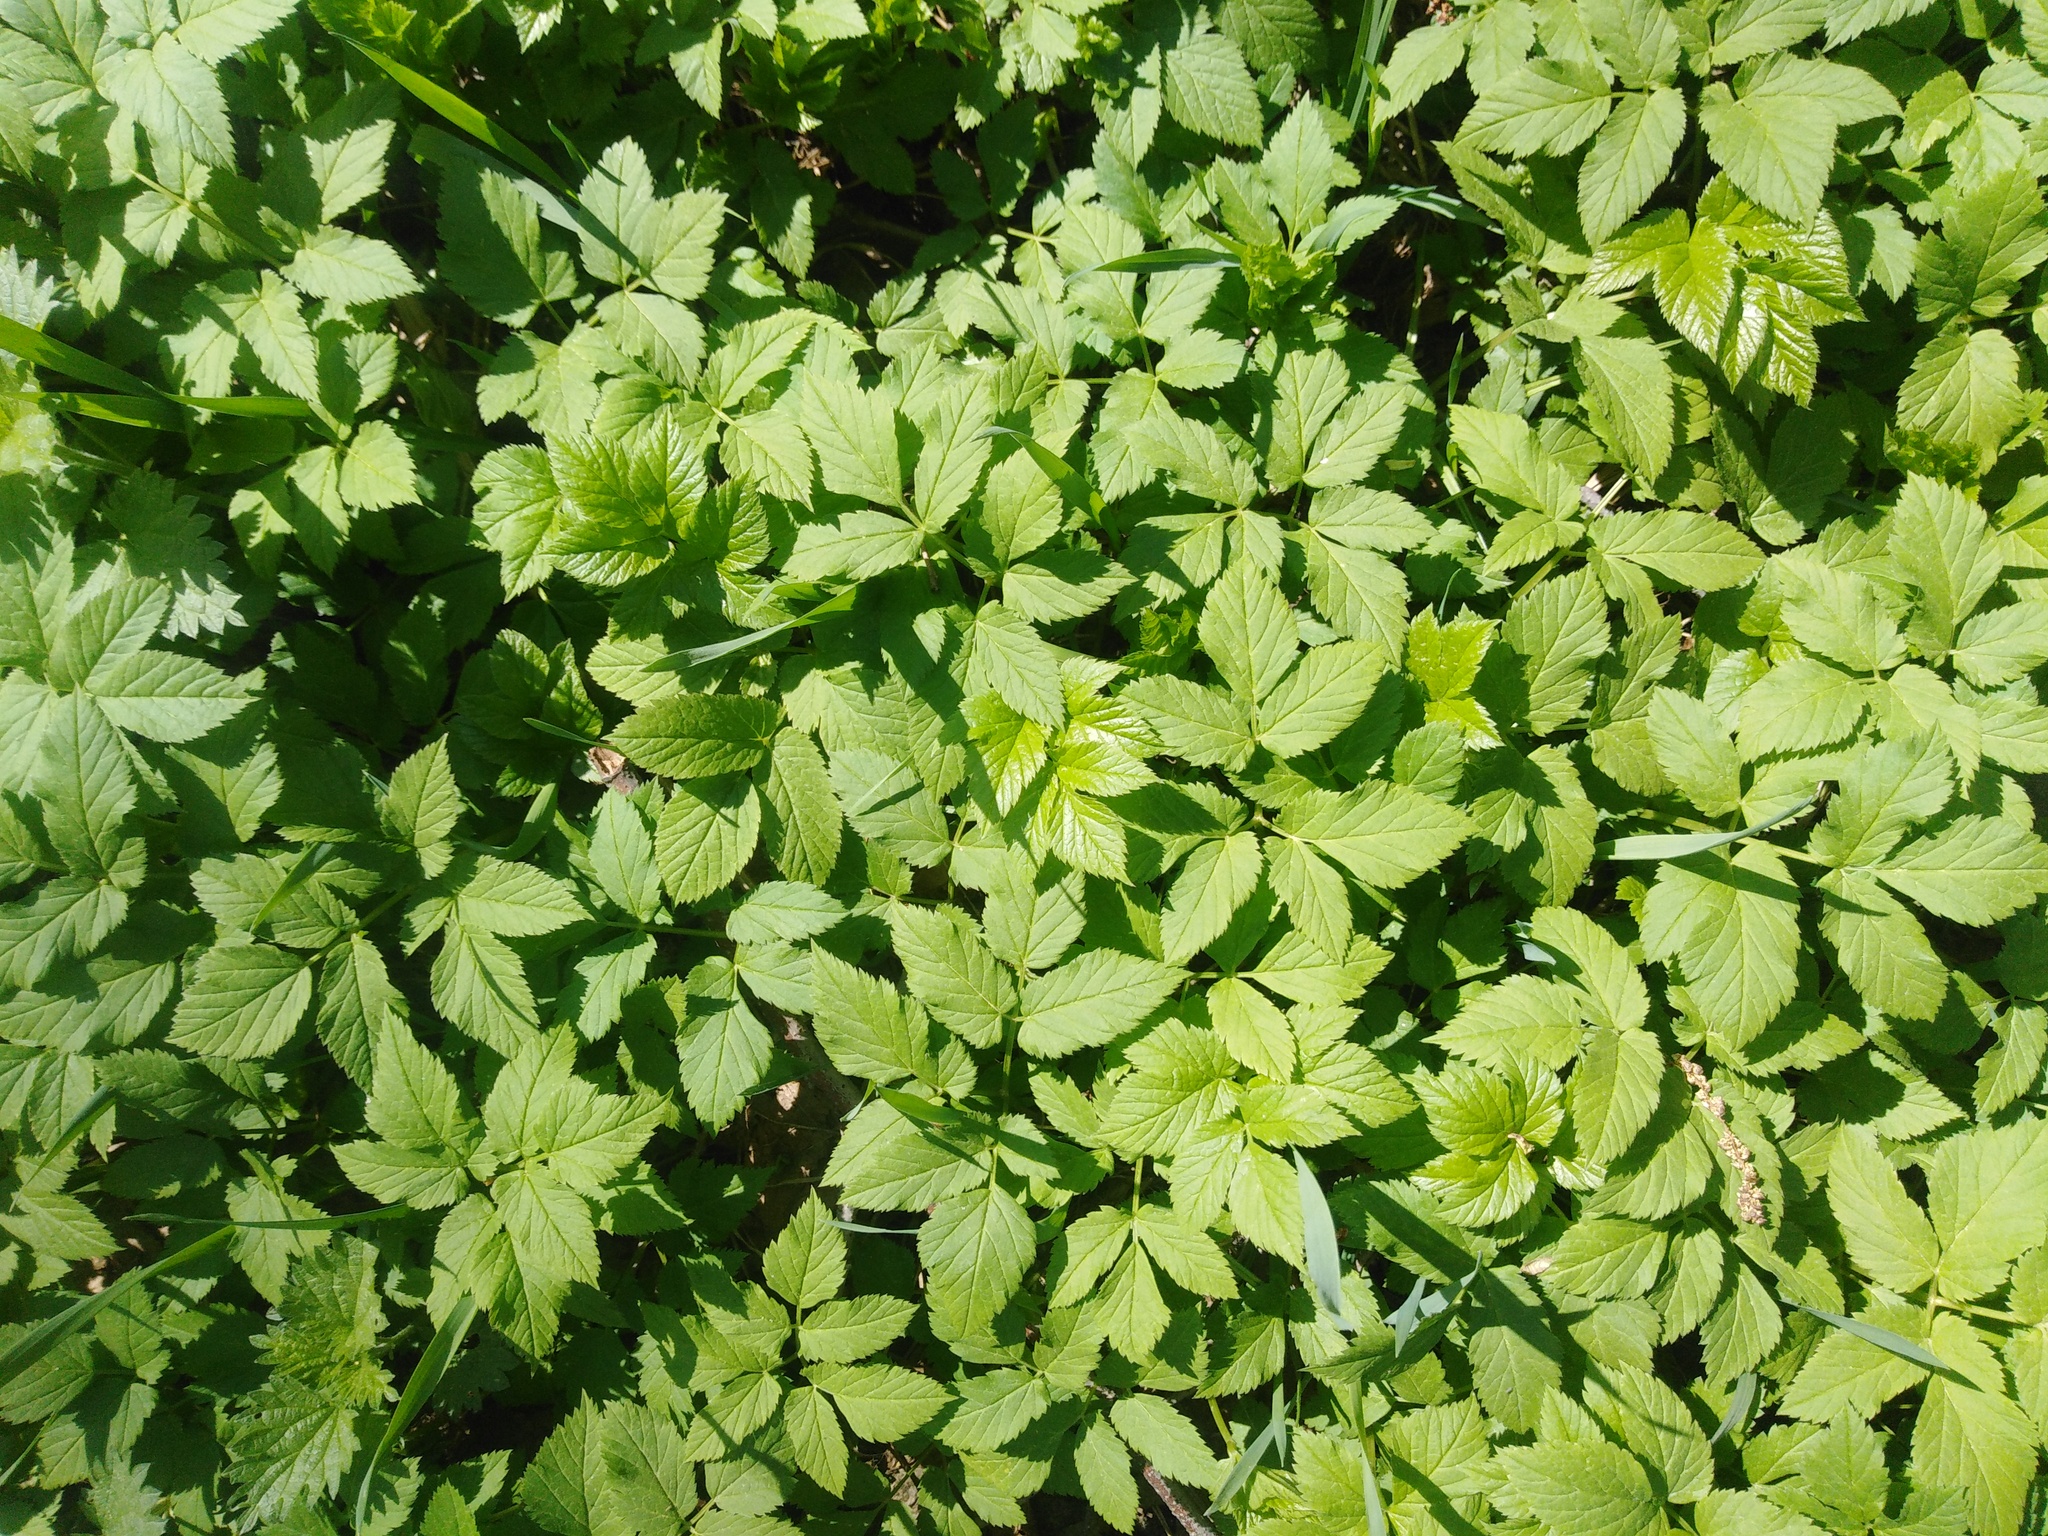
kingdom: Plantae
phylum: Tracheophyta
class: Magnoliopsida
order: Apiales
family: Apiaceae
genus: Aegopodium
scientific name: Aegopodium podagraria
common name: Ground-elder
